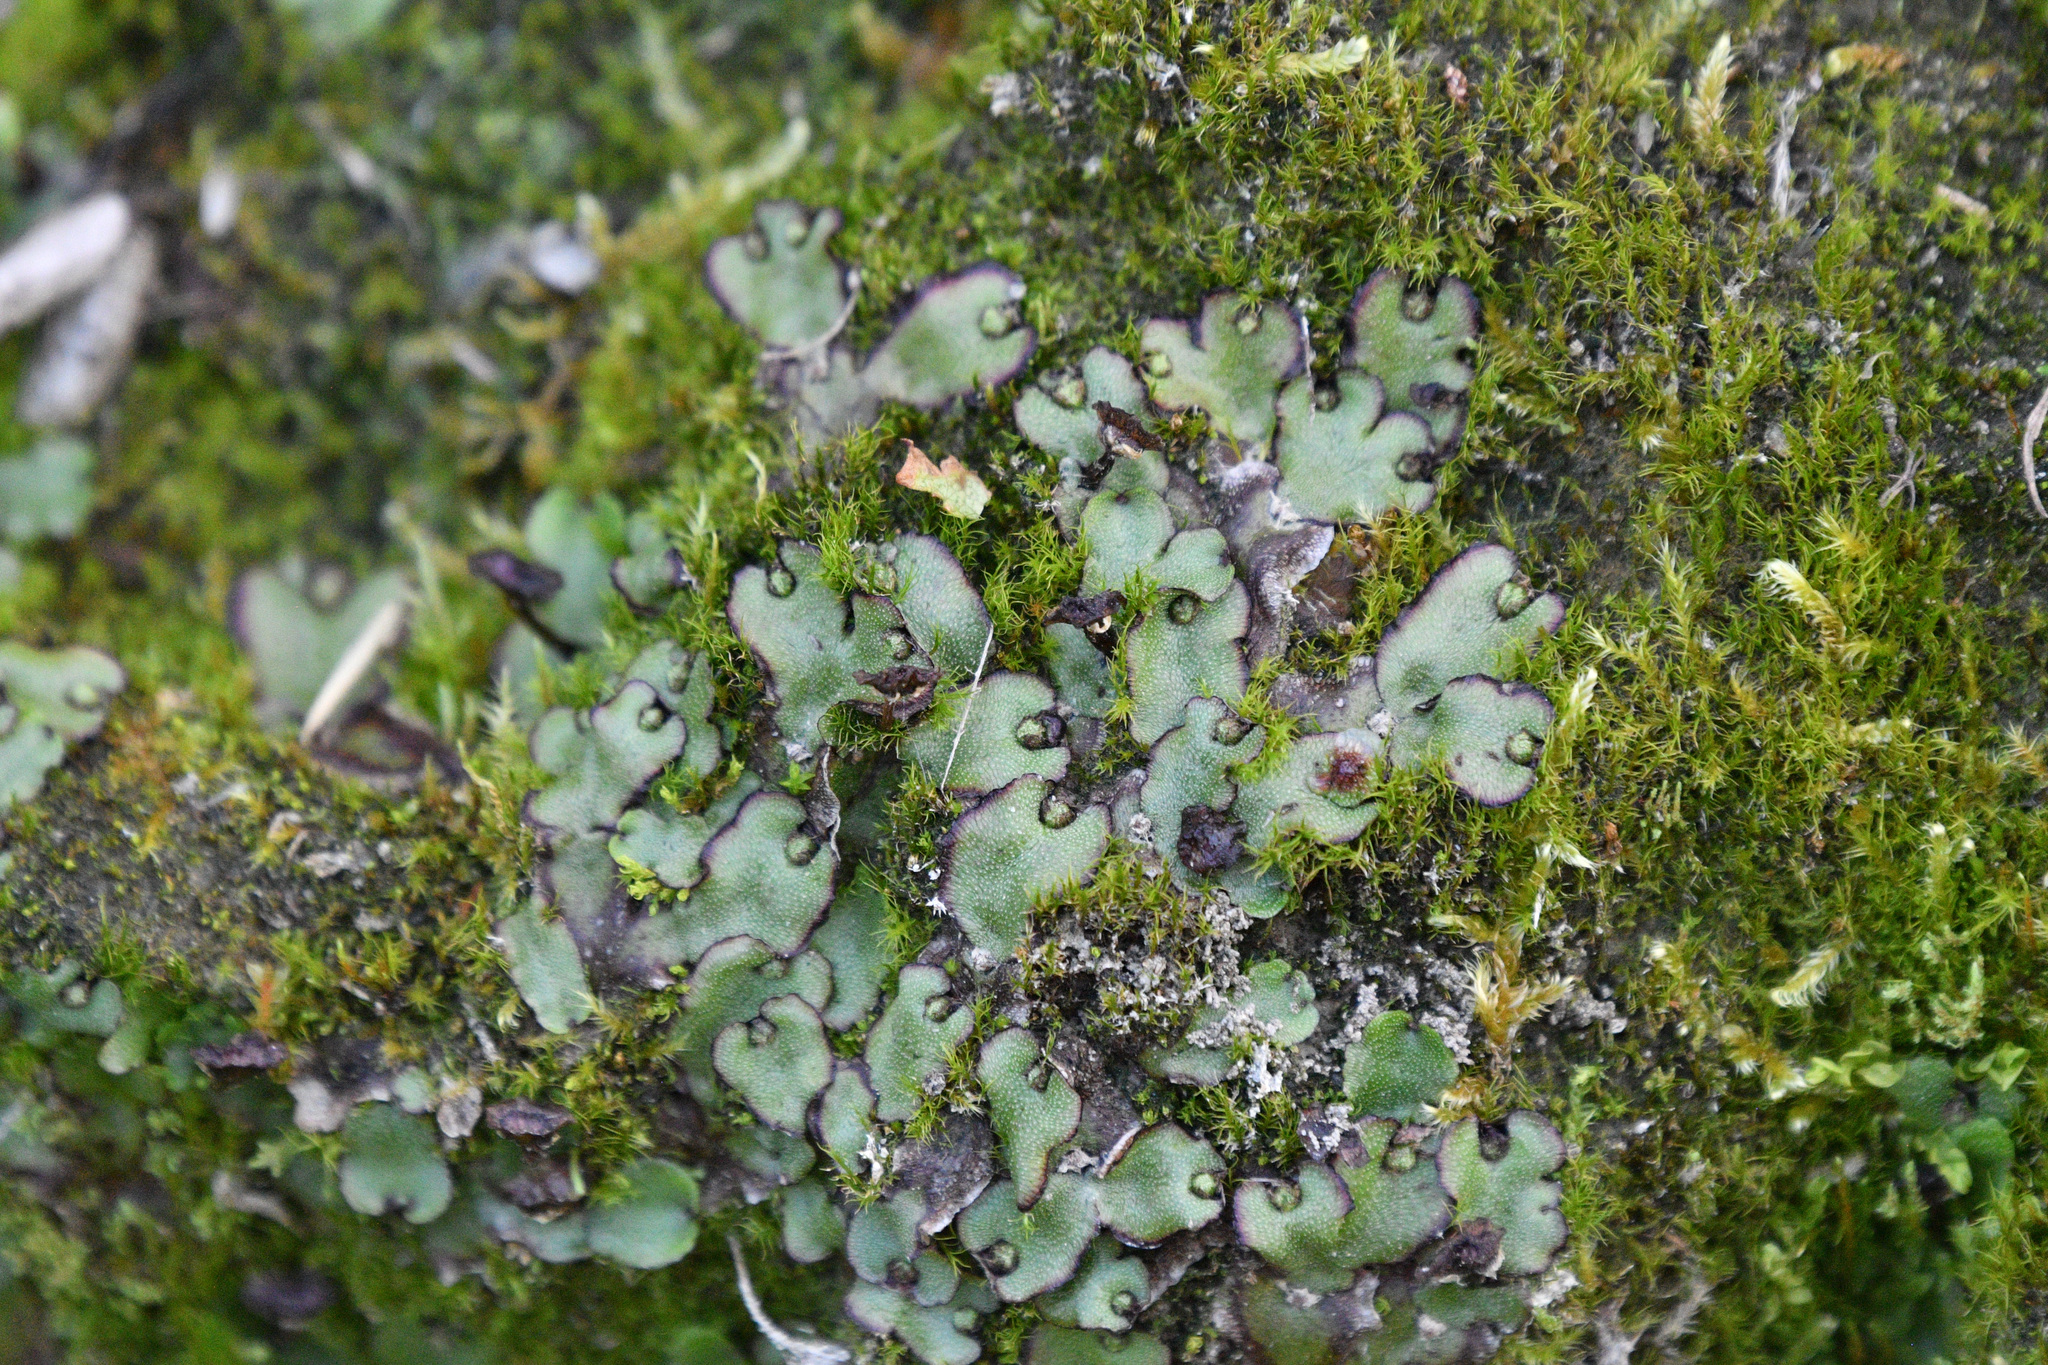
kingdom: Plantae
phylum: Marchantiophyta
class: Marchantiopsida
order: Marchantiales
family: Marchantiaceae
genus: Marchantia
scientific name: Marchantia quadrata
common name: Narrow mushroom-headed liverwort
